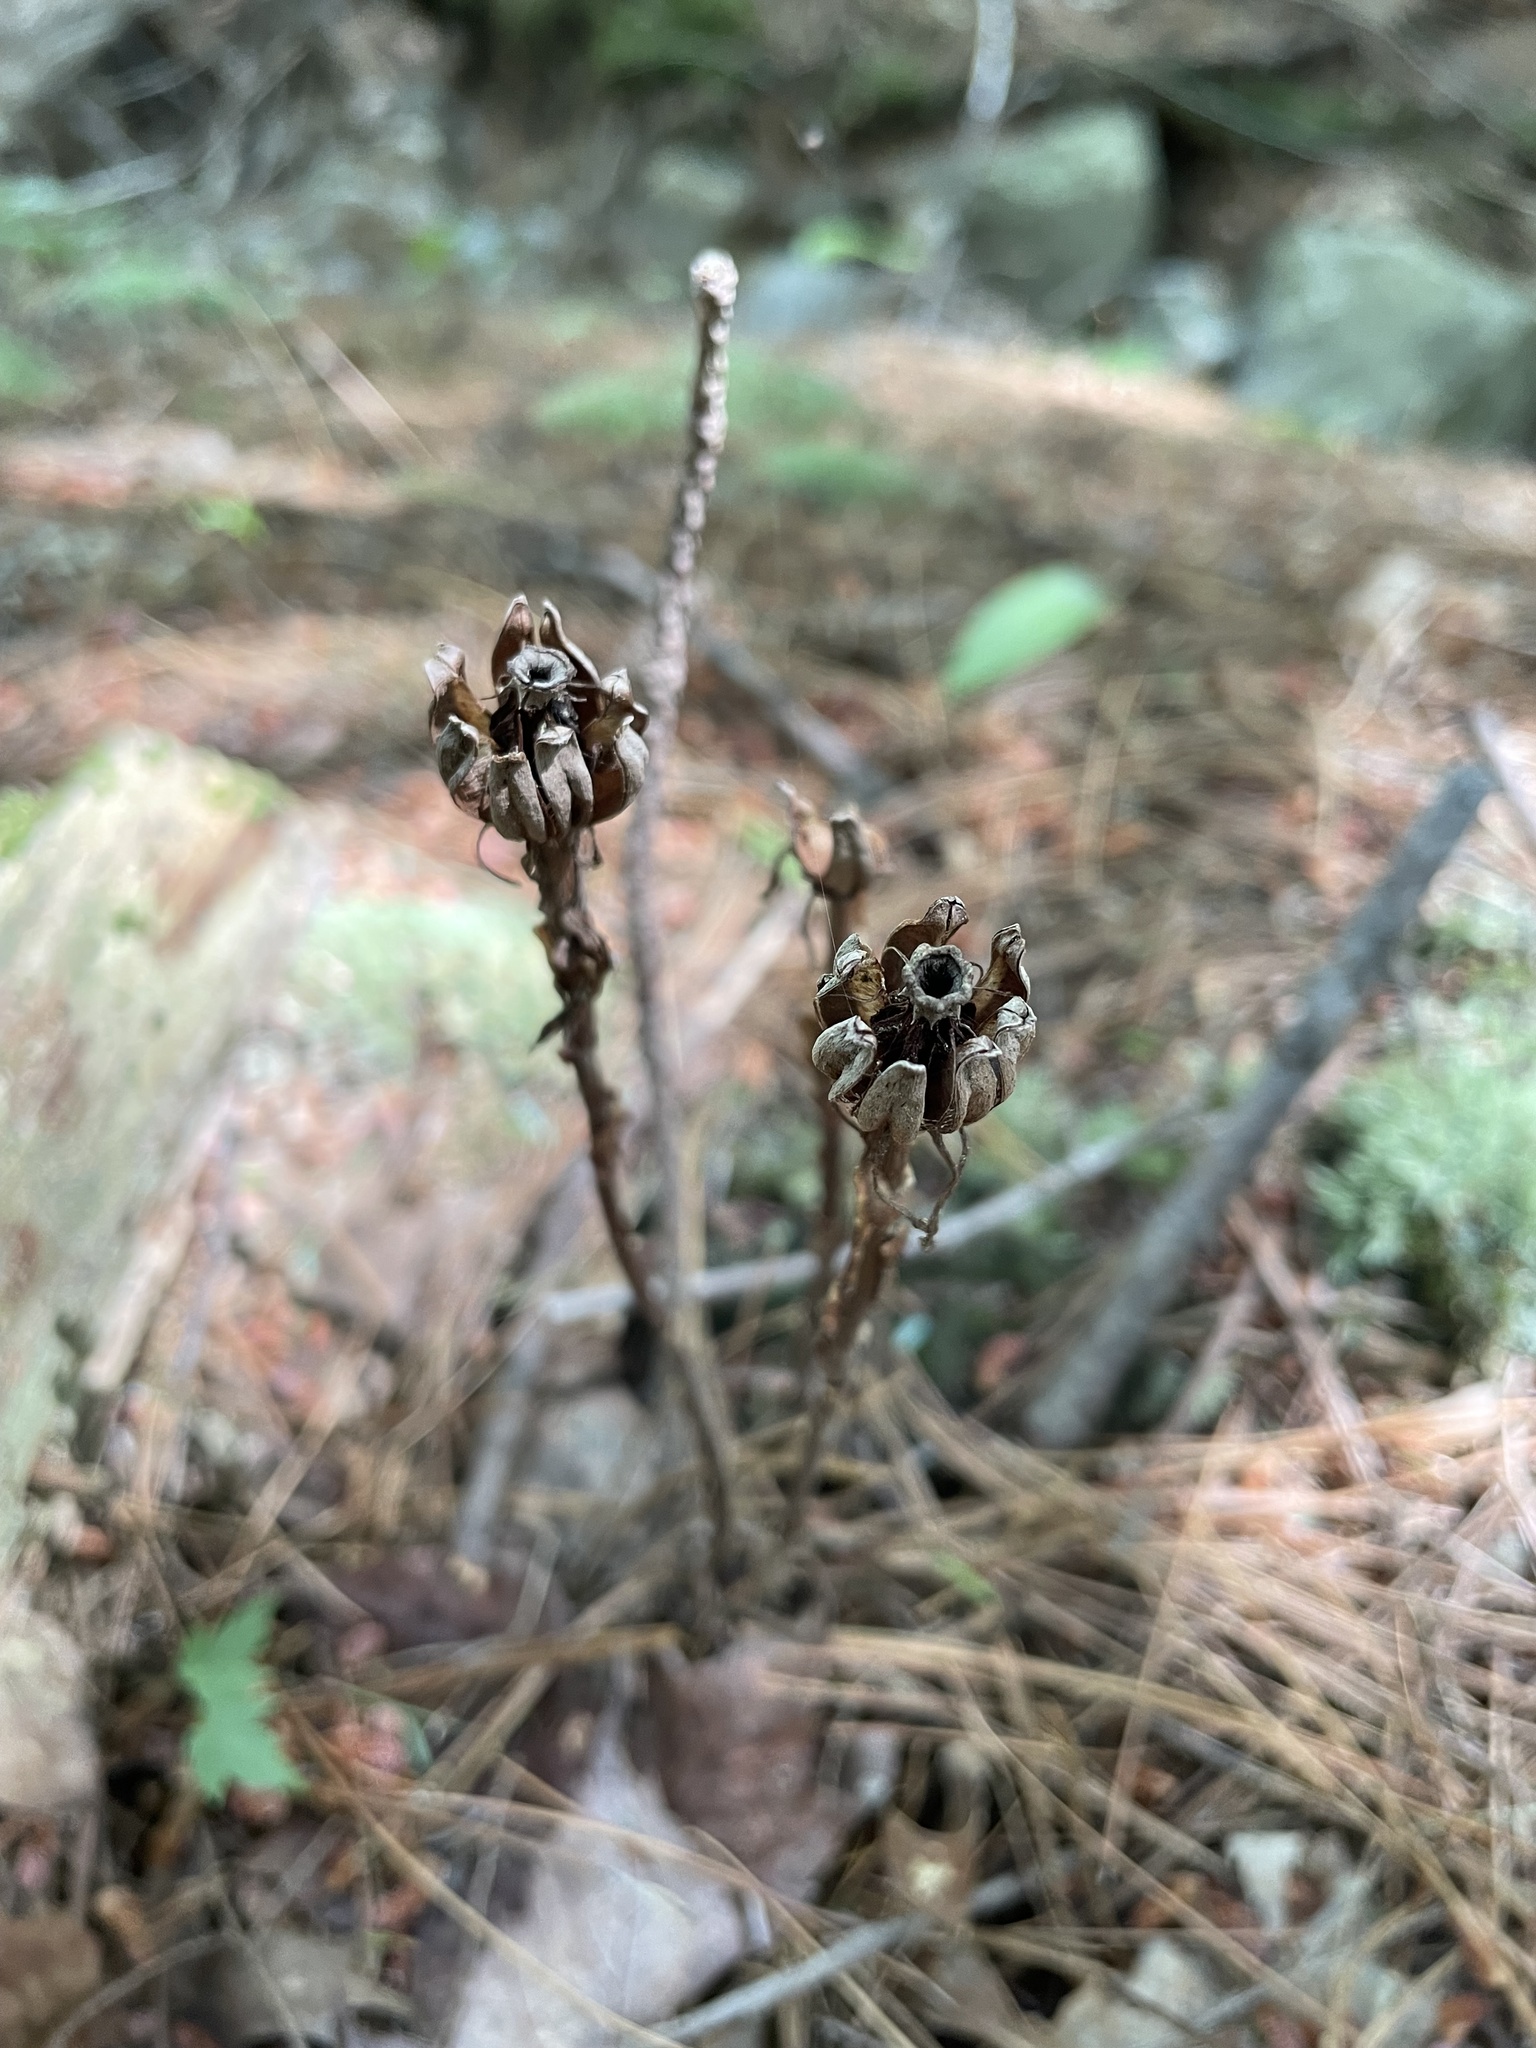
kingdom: Plantae
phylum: Tracheophyta
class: Magnoliopsida
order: Ericales
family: Ericaceae
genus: Monotropa
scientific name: Monotropa uniflora
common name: Convulsion root
